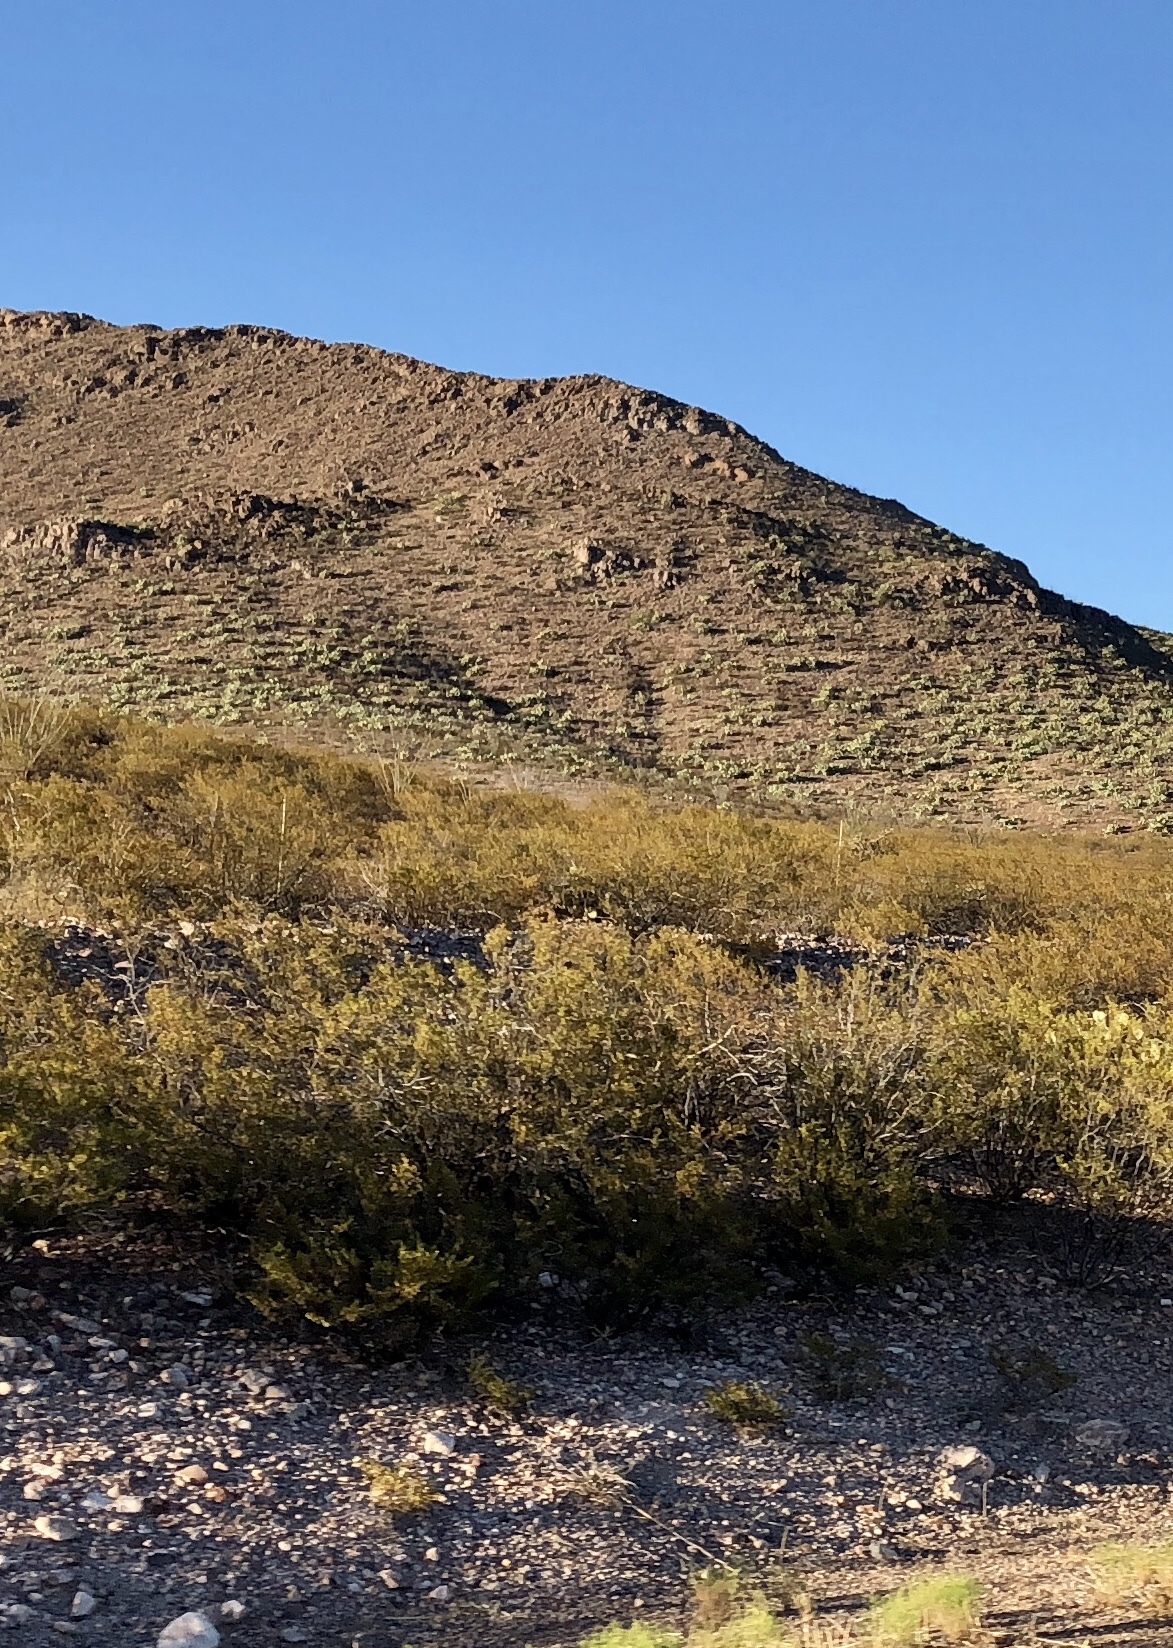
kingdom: Plantae
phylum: Tracheophyta
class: Magnoliopsida
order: Zygophyllales
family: Zygophyllaceae
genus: Larrea
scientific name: Larrea tridentata
